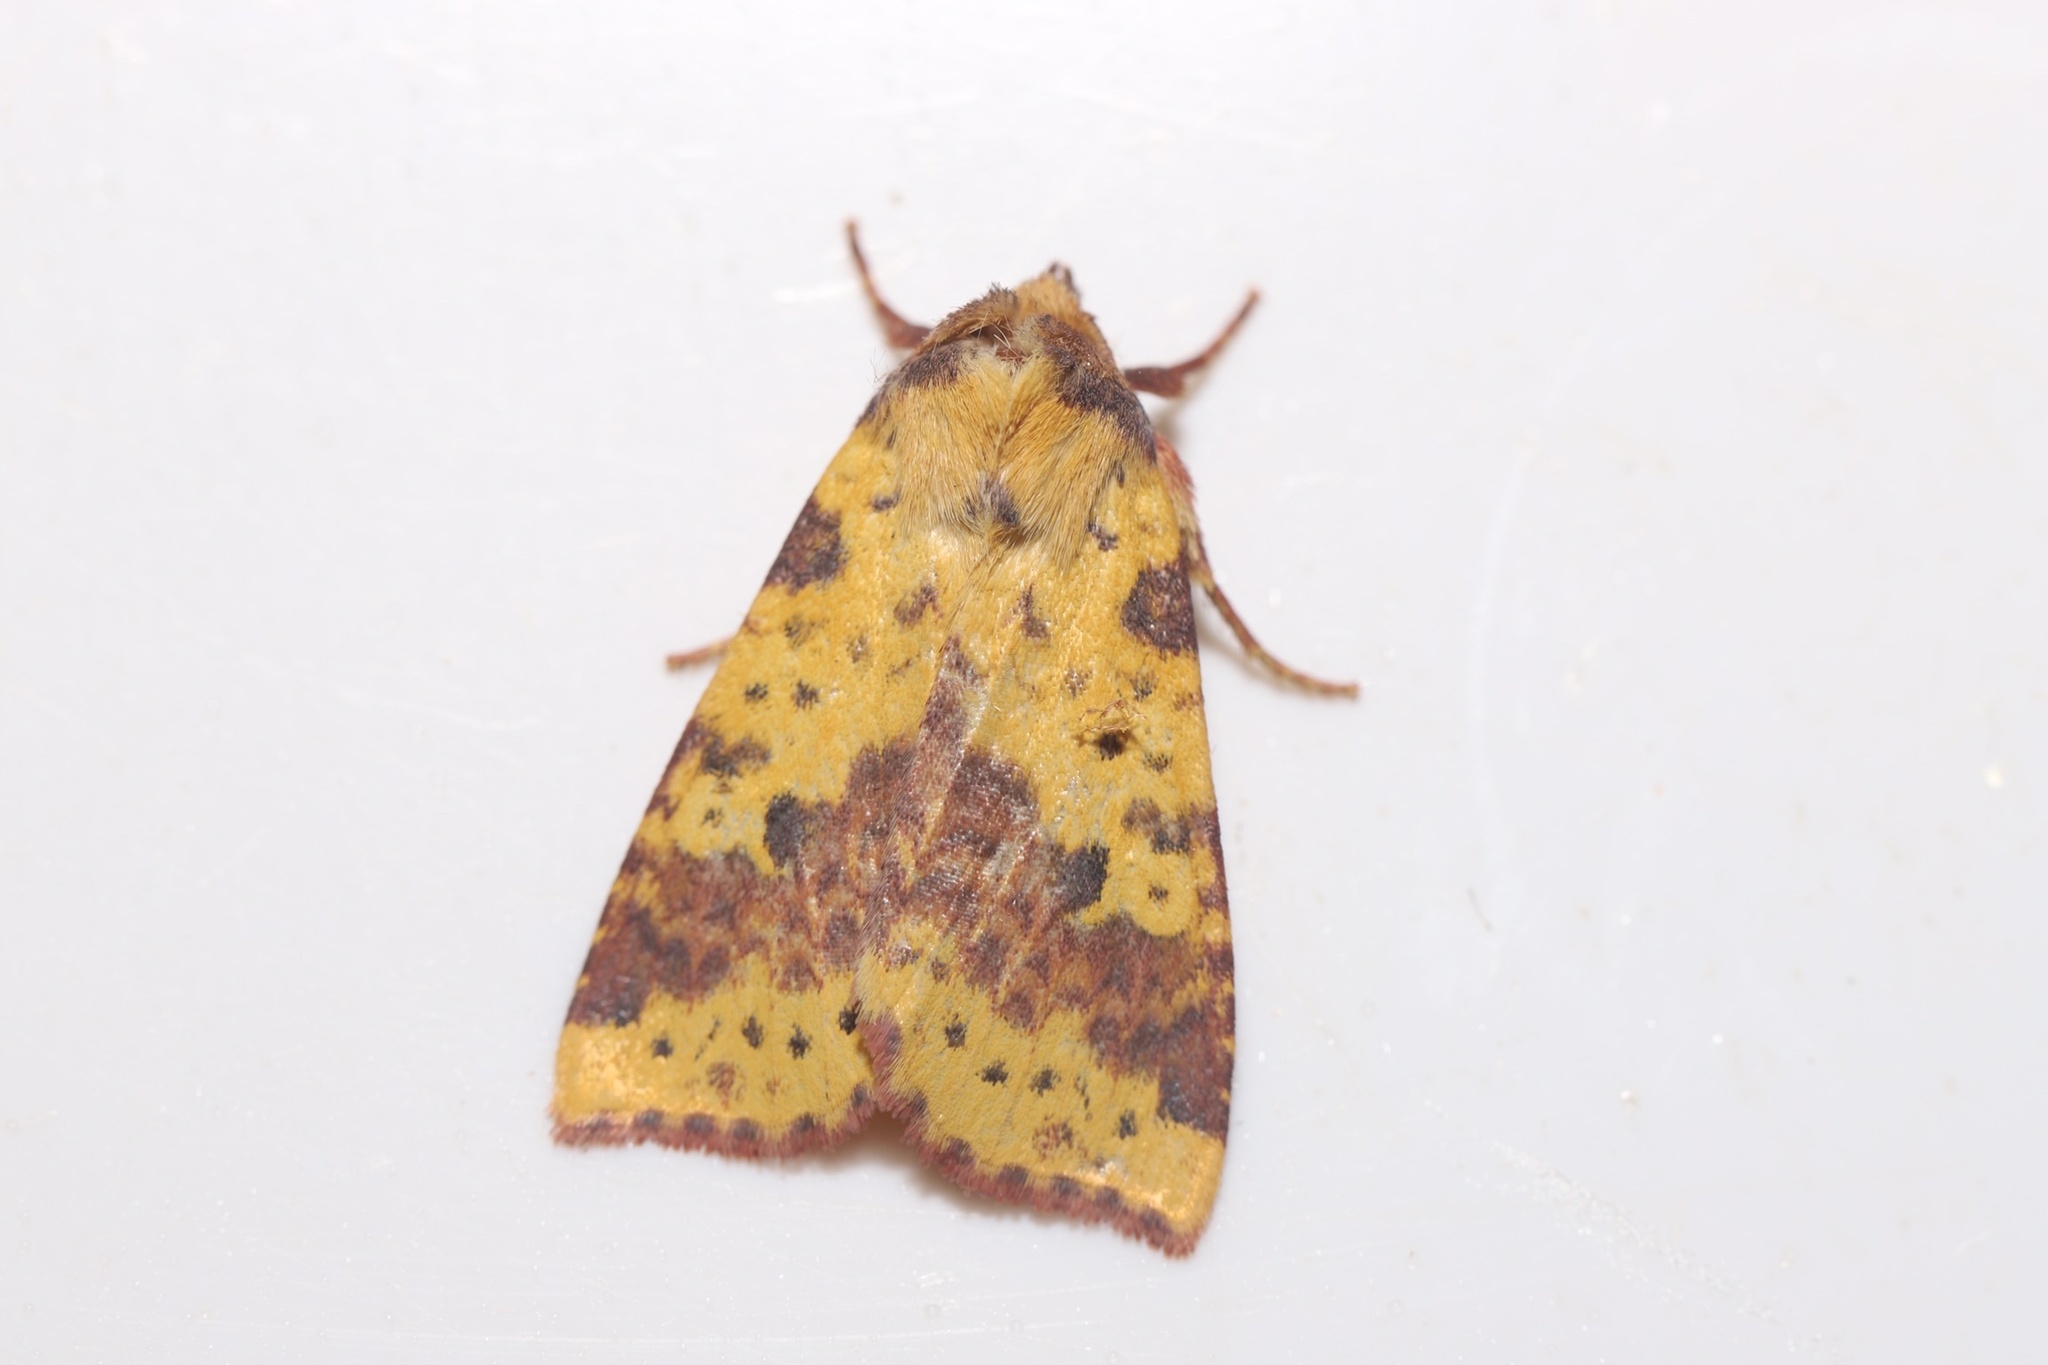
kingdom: Animalia
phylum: Arthropoda
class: Insecta
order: Lepidoptera
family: Noctuidae
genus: Xanthia
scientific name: Xanthia tatago
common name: Pink-banded sallow
